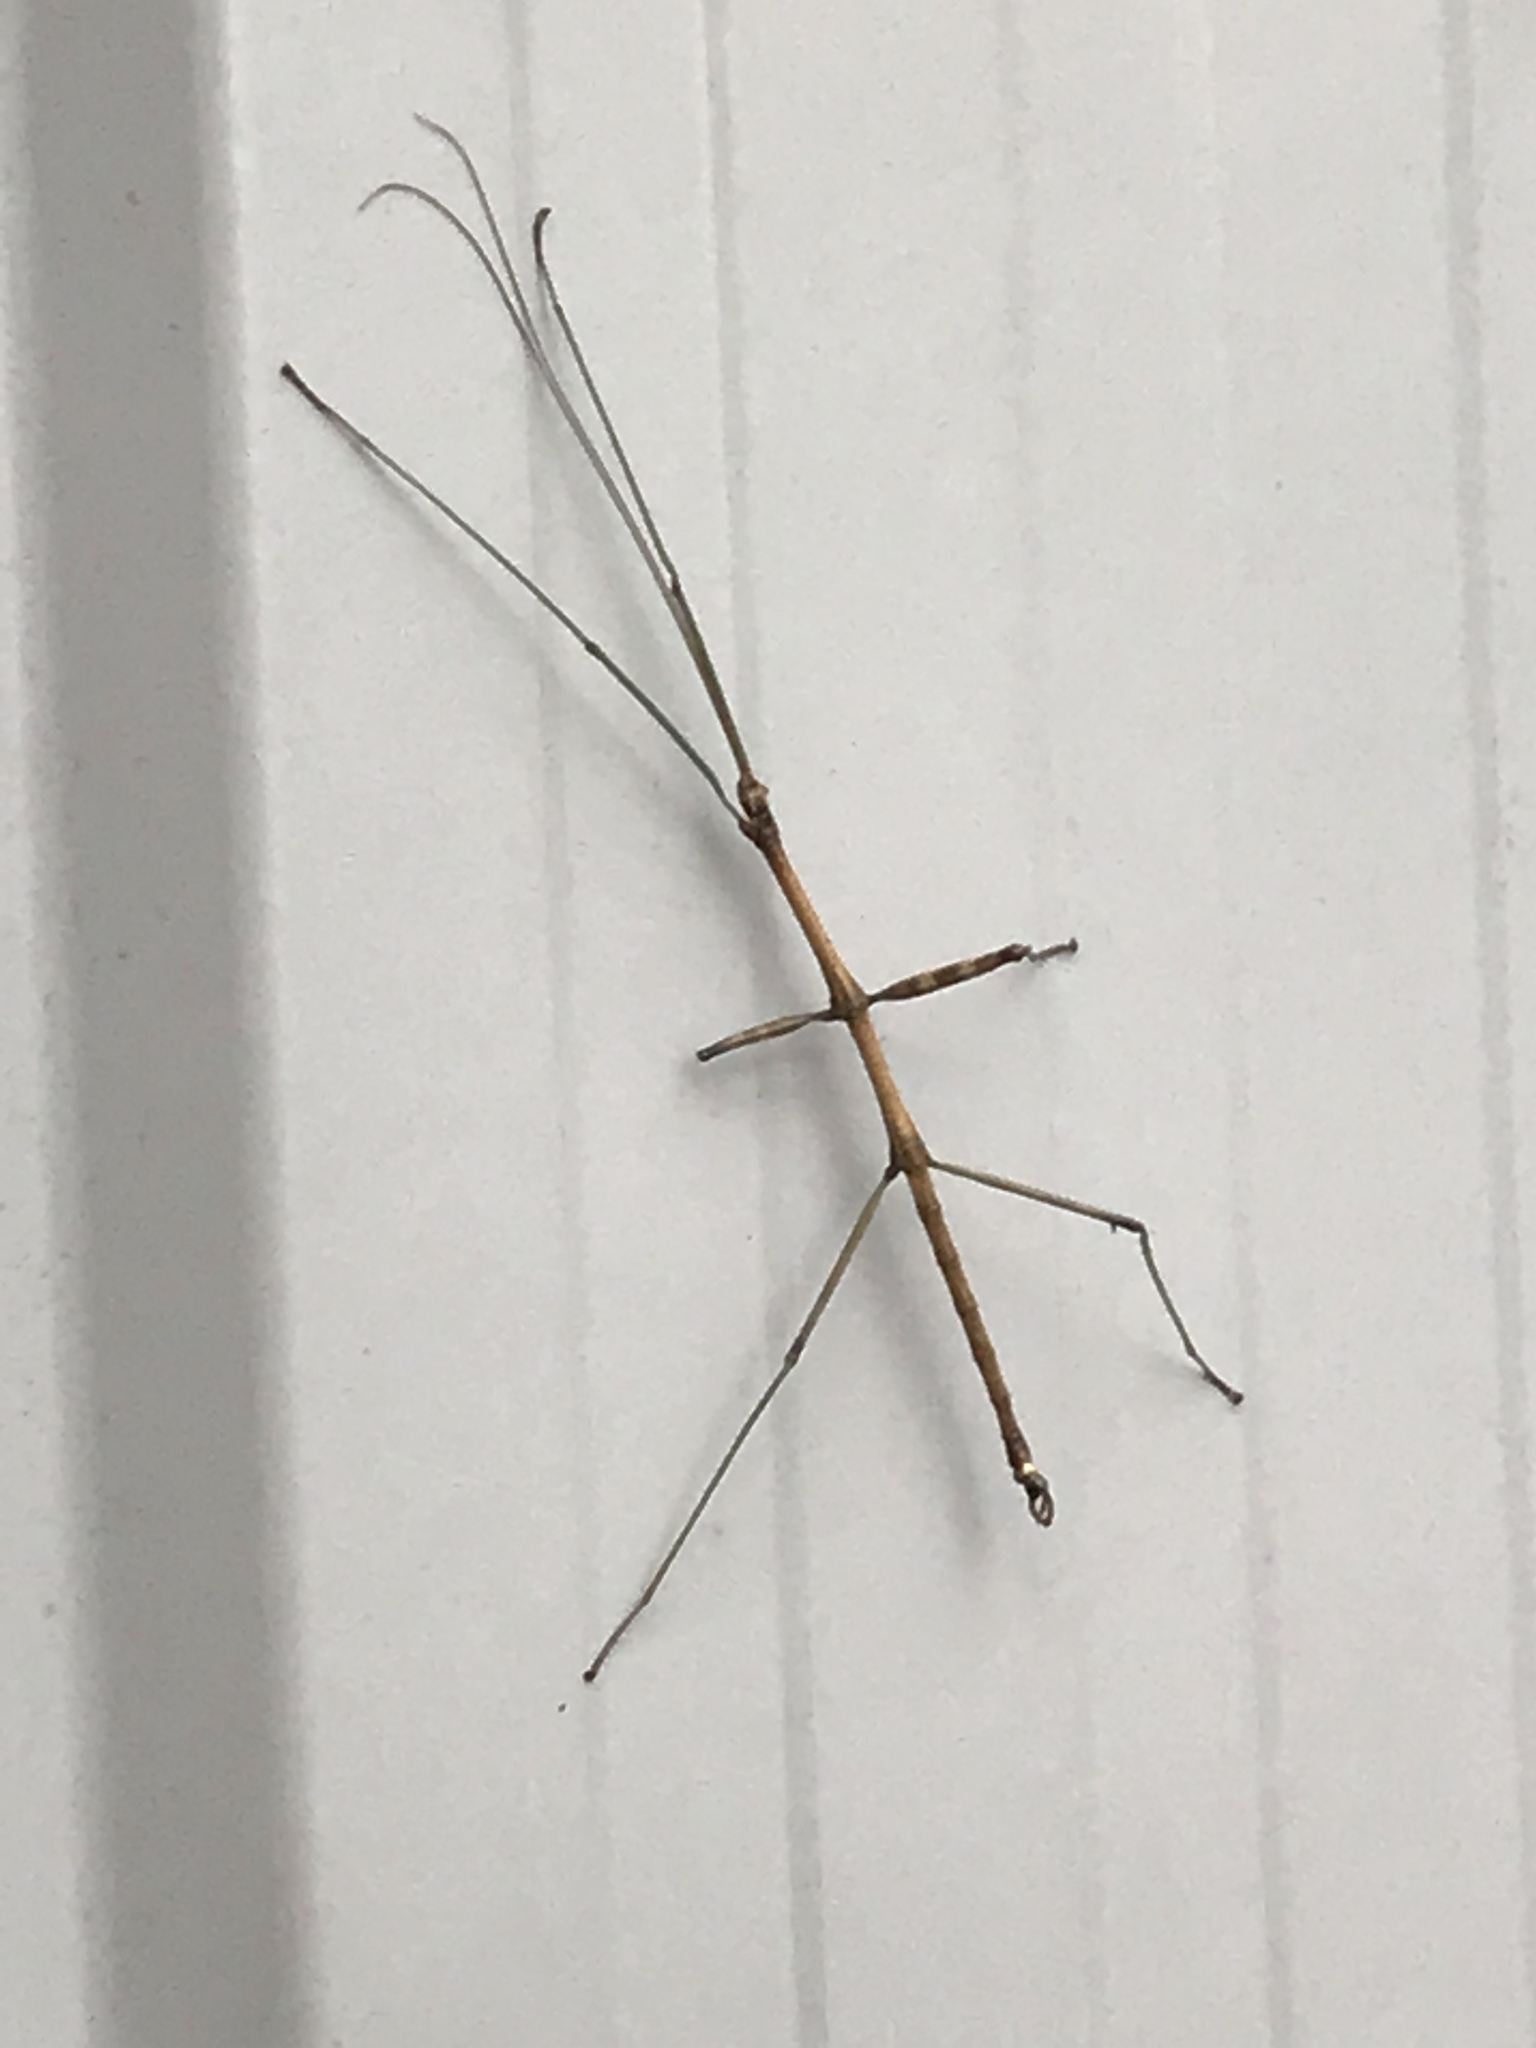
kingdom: Animalia
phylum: Arthropoda
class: Insecta
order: Phasmida
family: Diapheromeridae
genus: Diapheromera
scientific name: Diapheromera femorata
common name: Common american walkingstick
